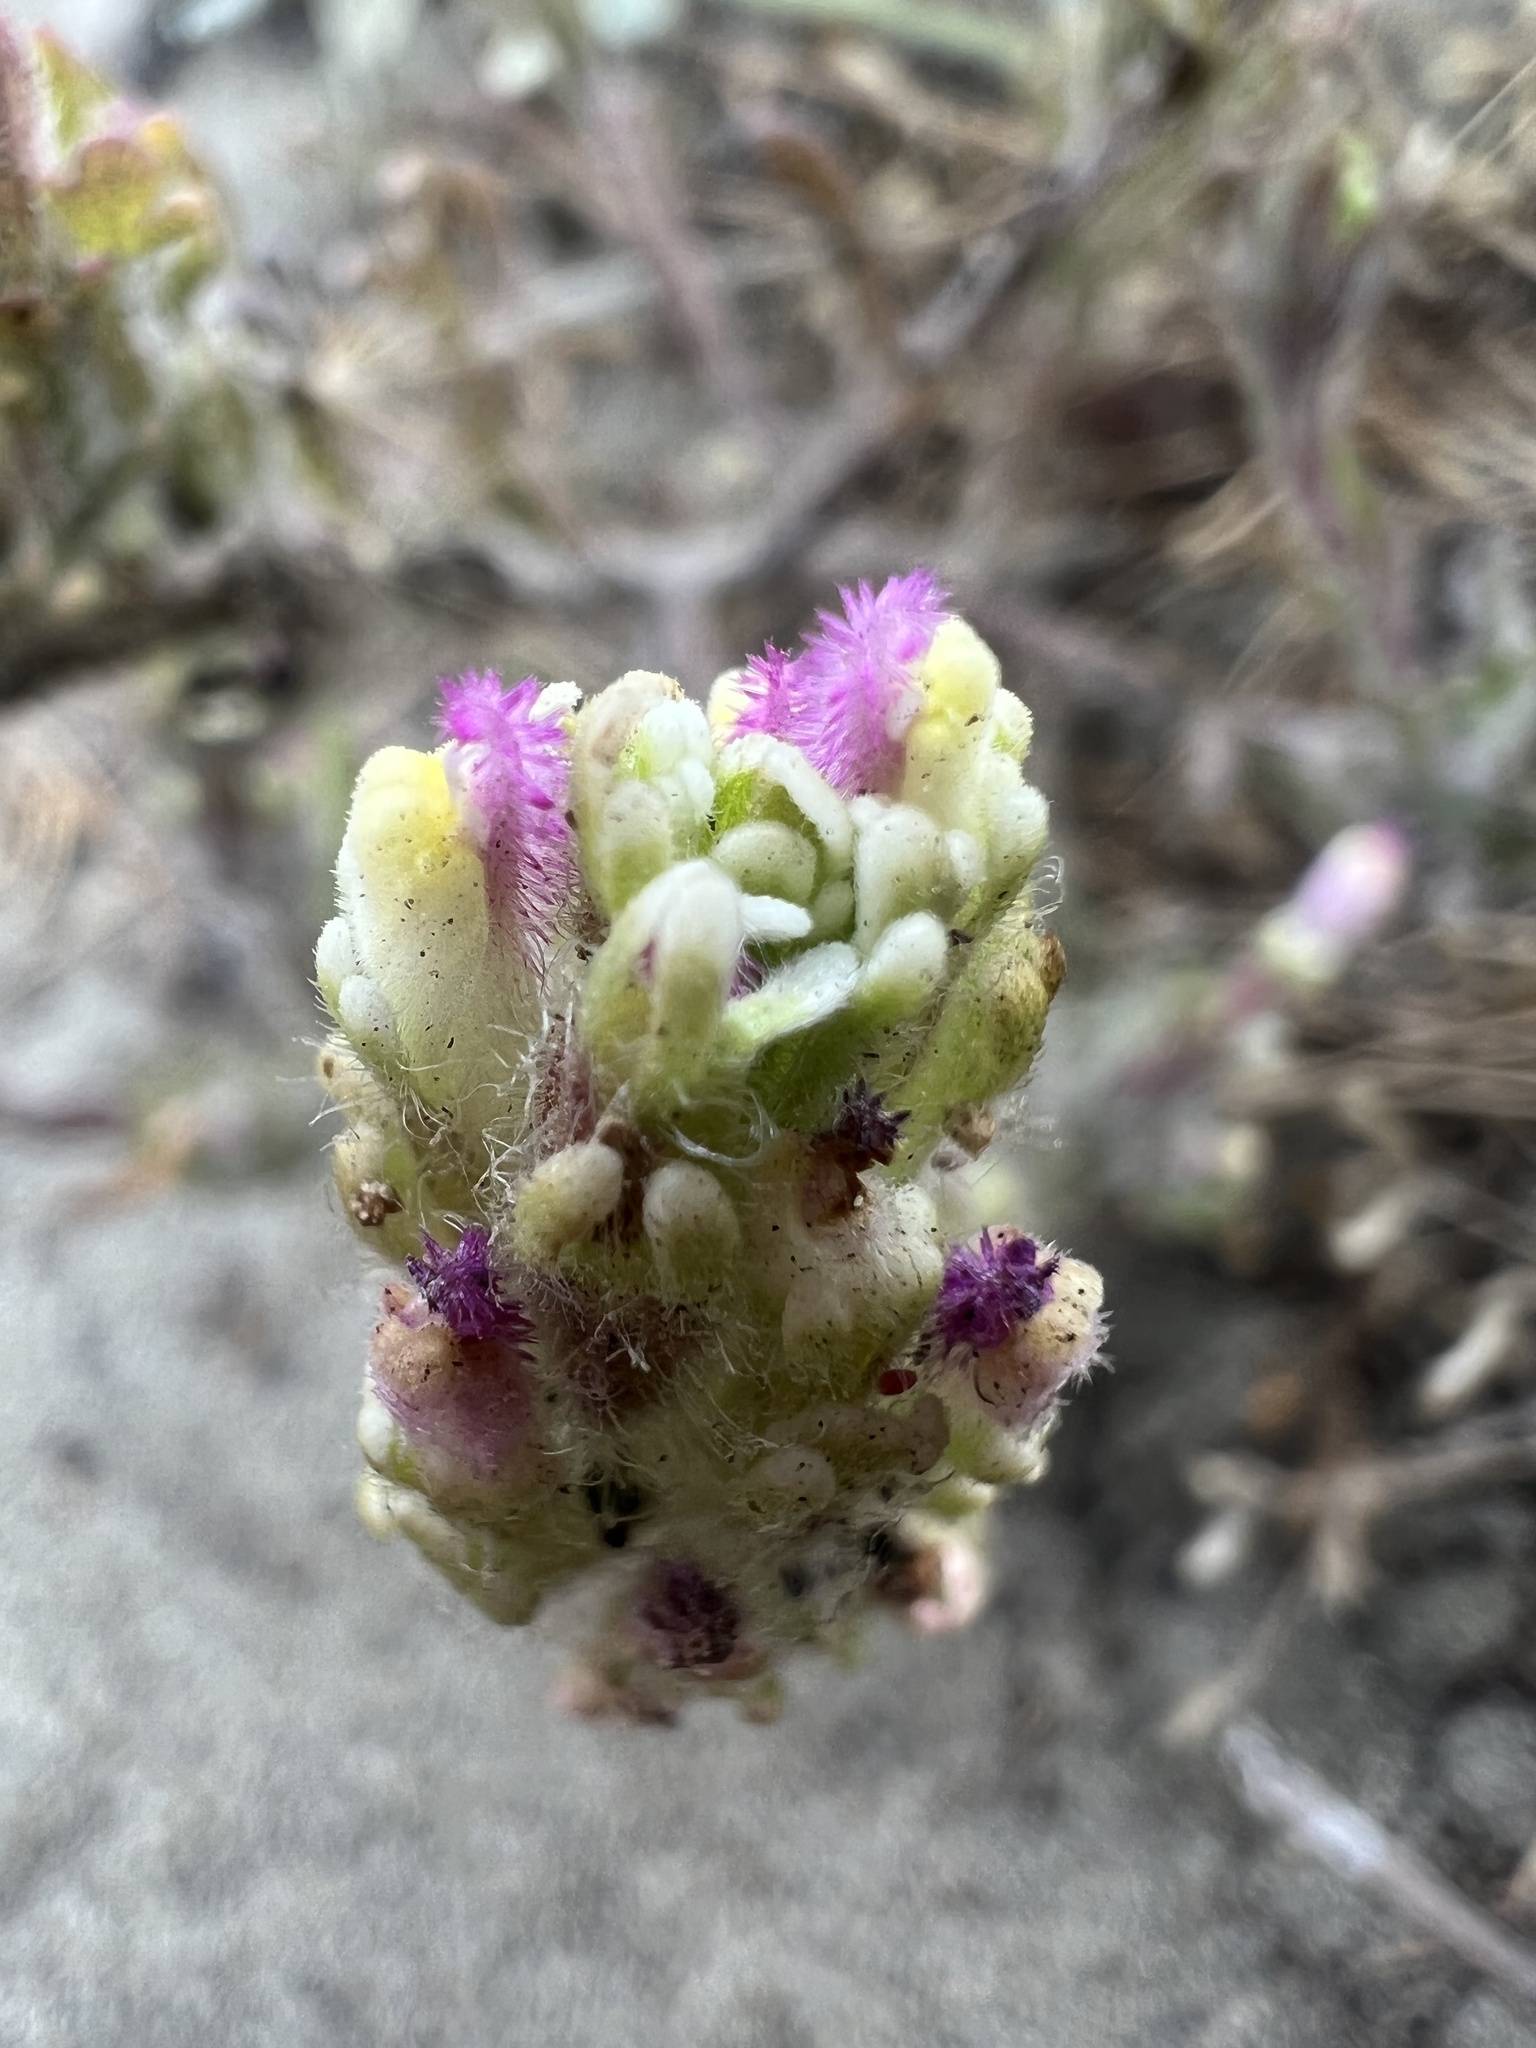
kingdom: Plantae
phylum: Tracheophyta
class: Magnoliopsida
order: Lamiales
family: Orobanchaceae
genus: Castilleja
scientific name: Castilleja exserta
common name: Purple owl-clover
